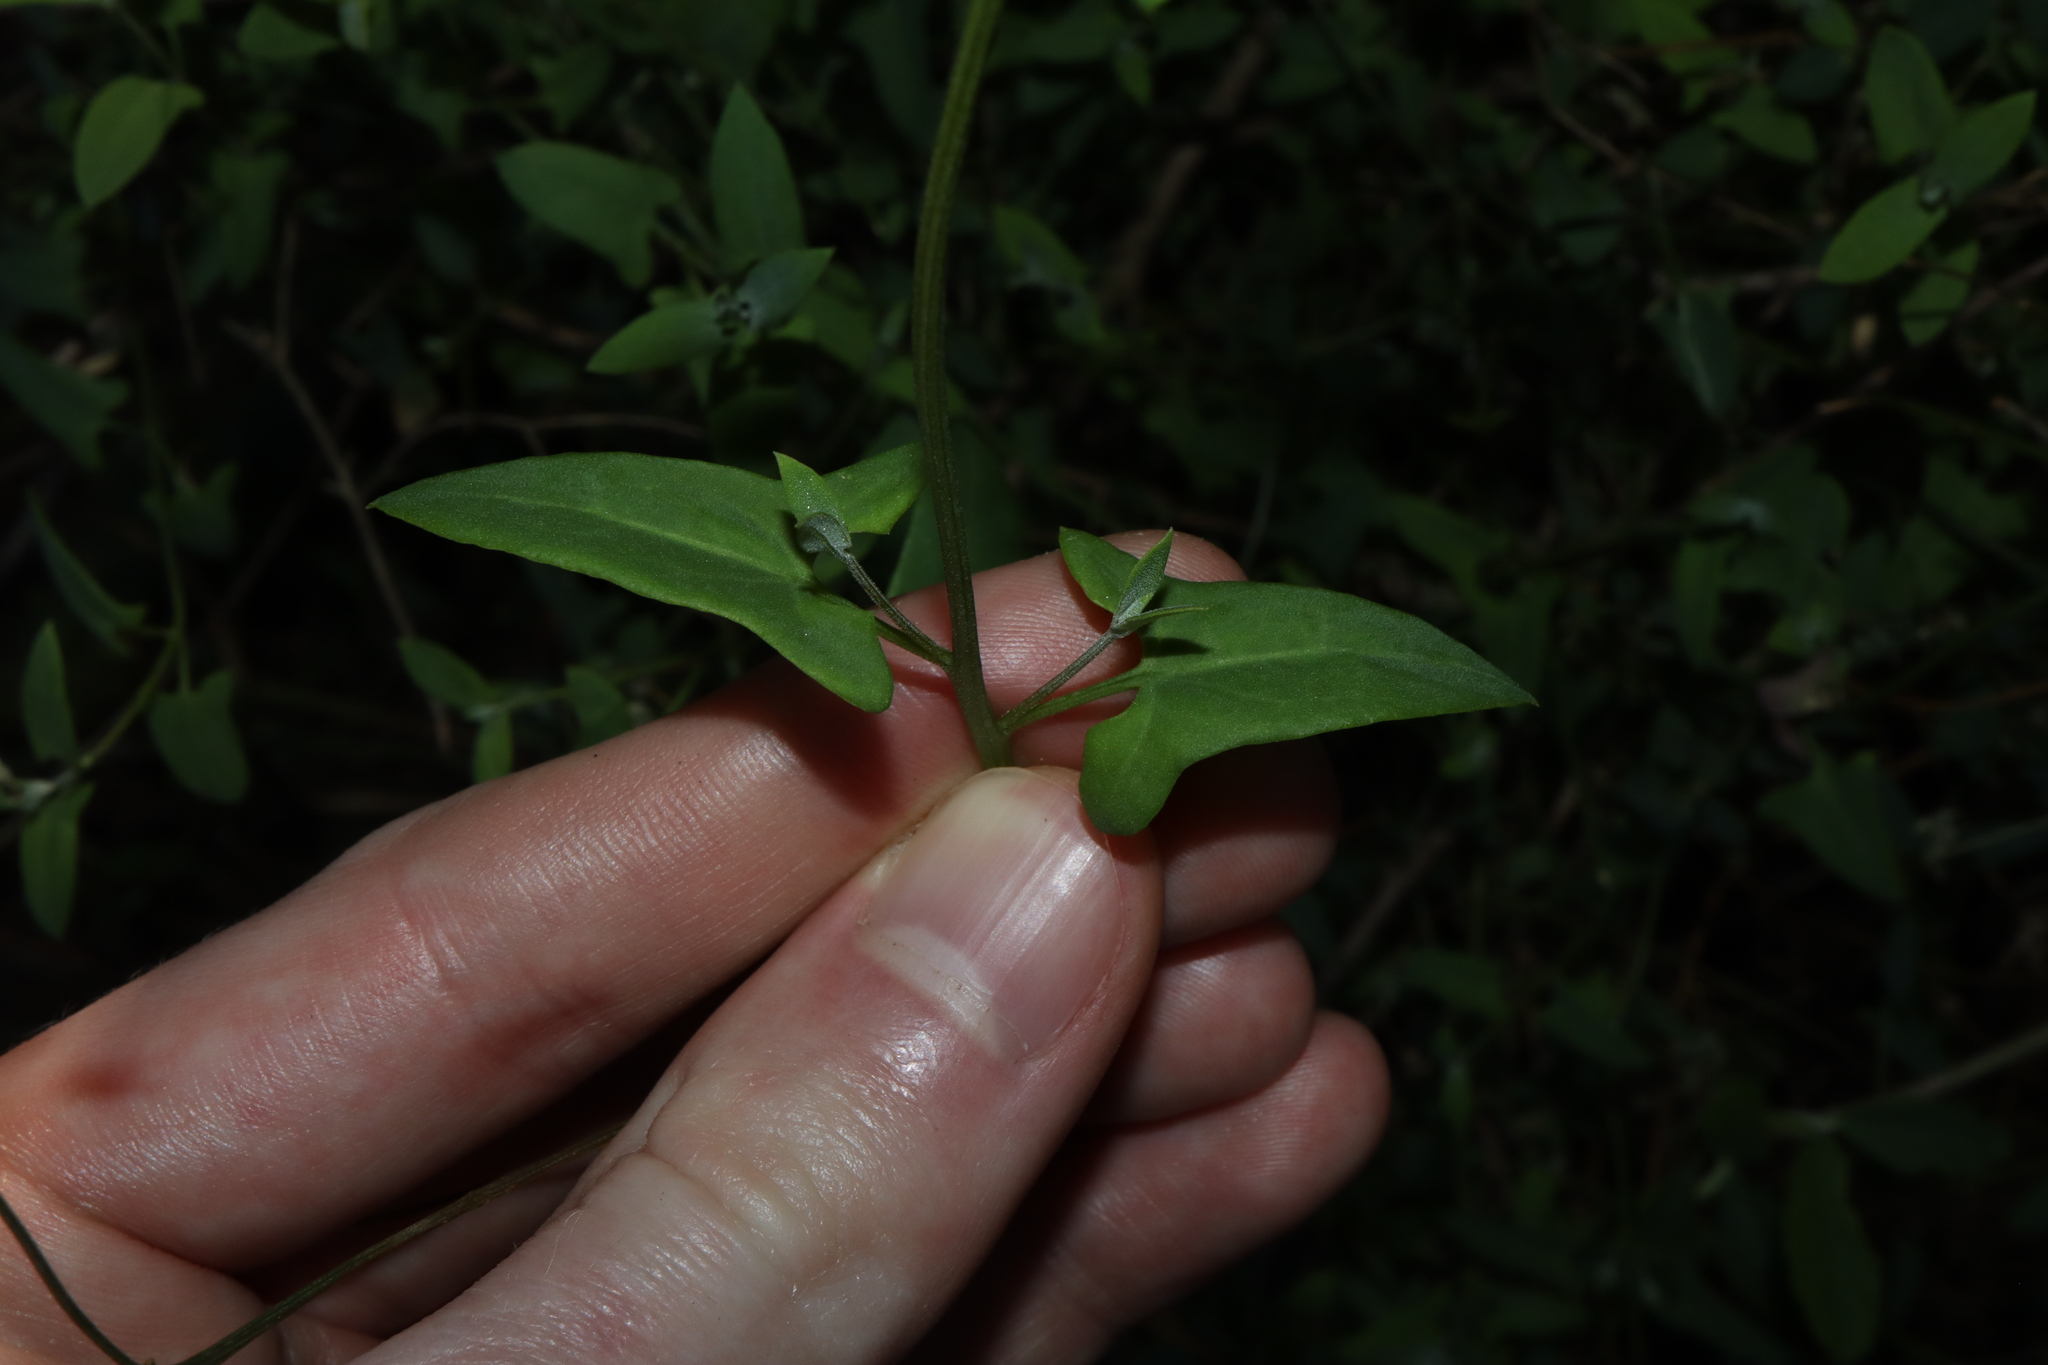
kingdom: Plantae
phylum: Tracheophyta
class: Magnoliopsida
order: Caryophyllales
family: Amaranthaceae
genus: Chenopodium
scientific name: Chenopodium nutans
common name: Climbing-saltbush
